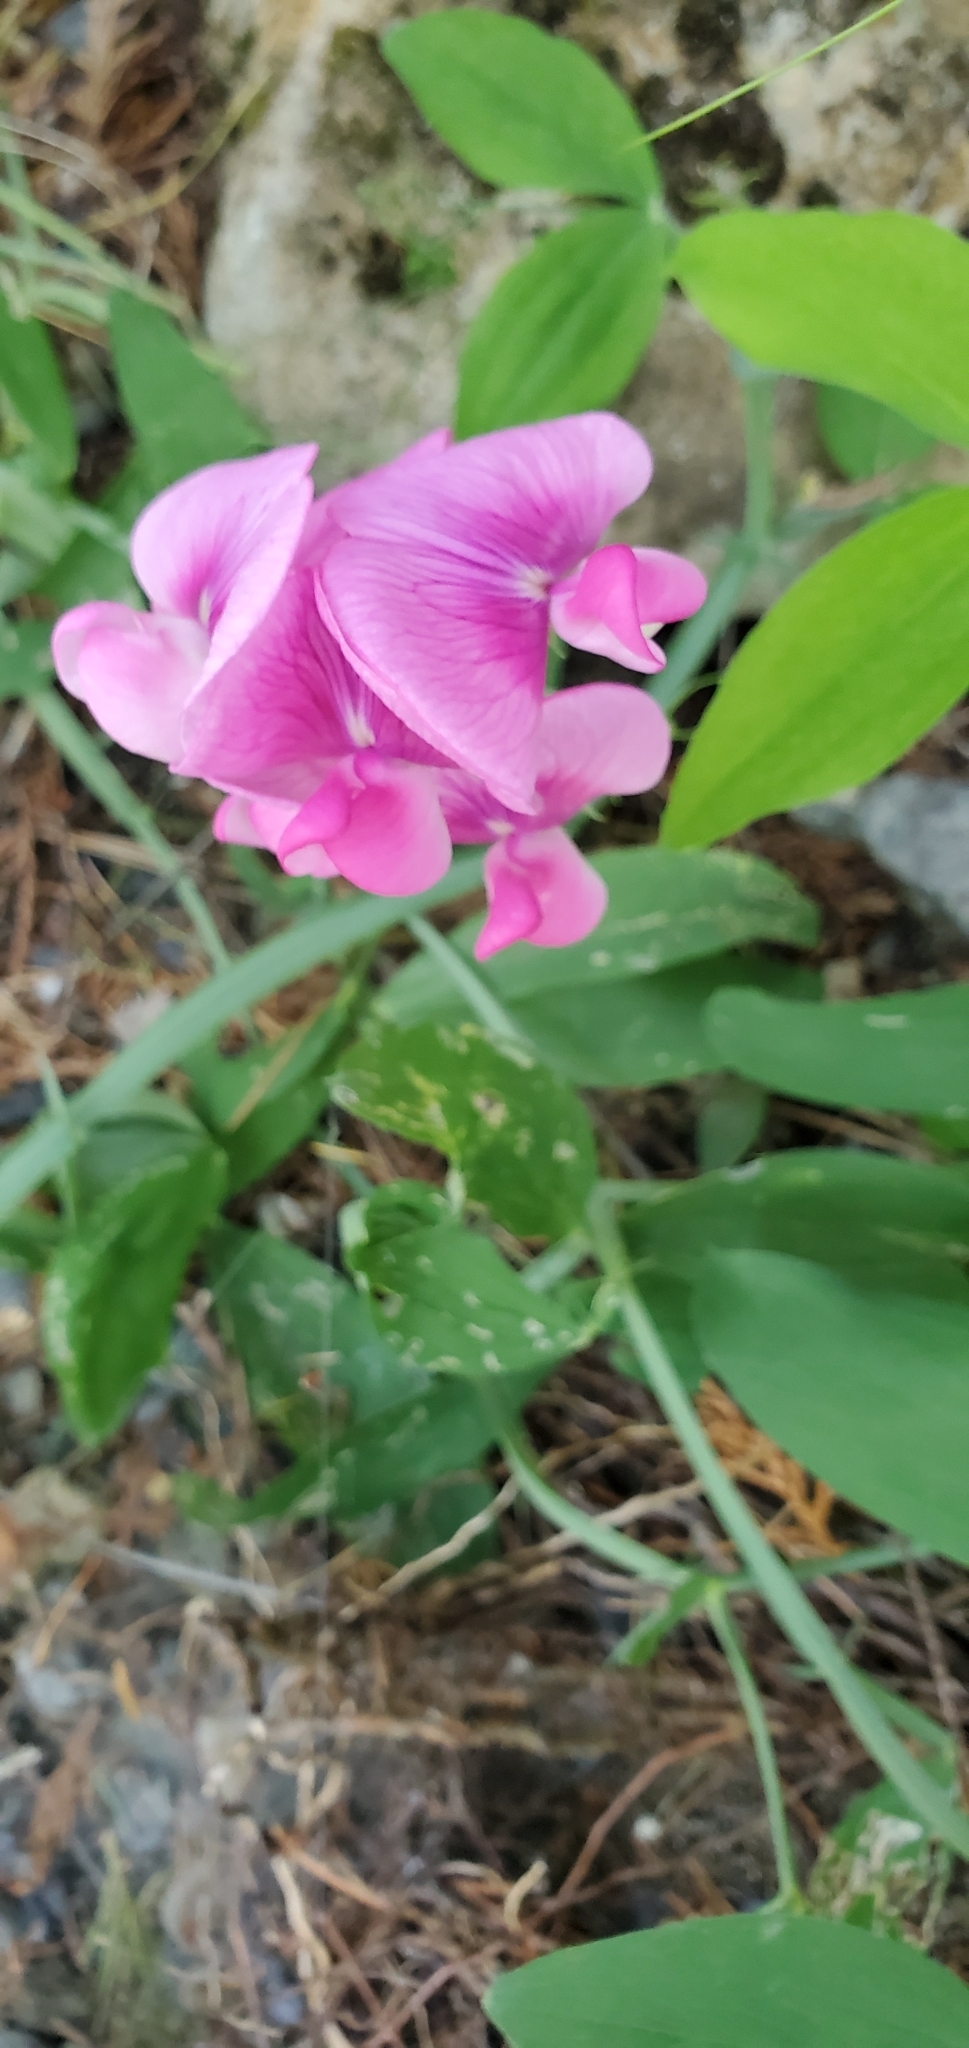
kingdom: Plantae
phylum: Tracheophyta
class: Magnoliopsida
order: Fabales
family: Fabaceae
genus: Lathyrus
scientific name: Lathyrus latifolius
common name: Perennial pea
